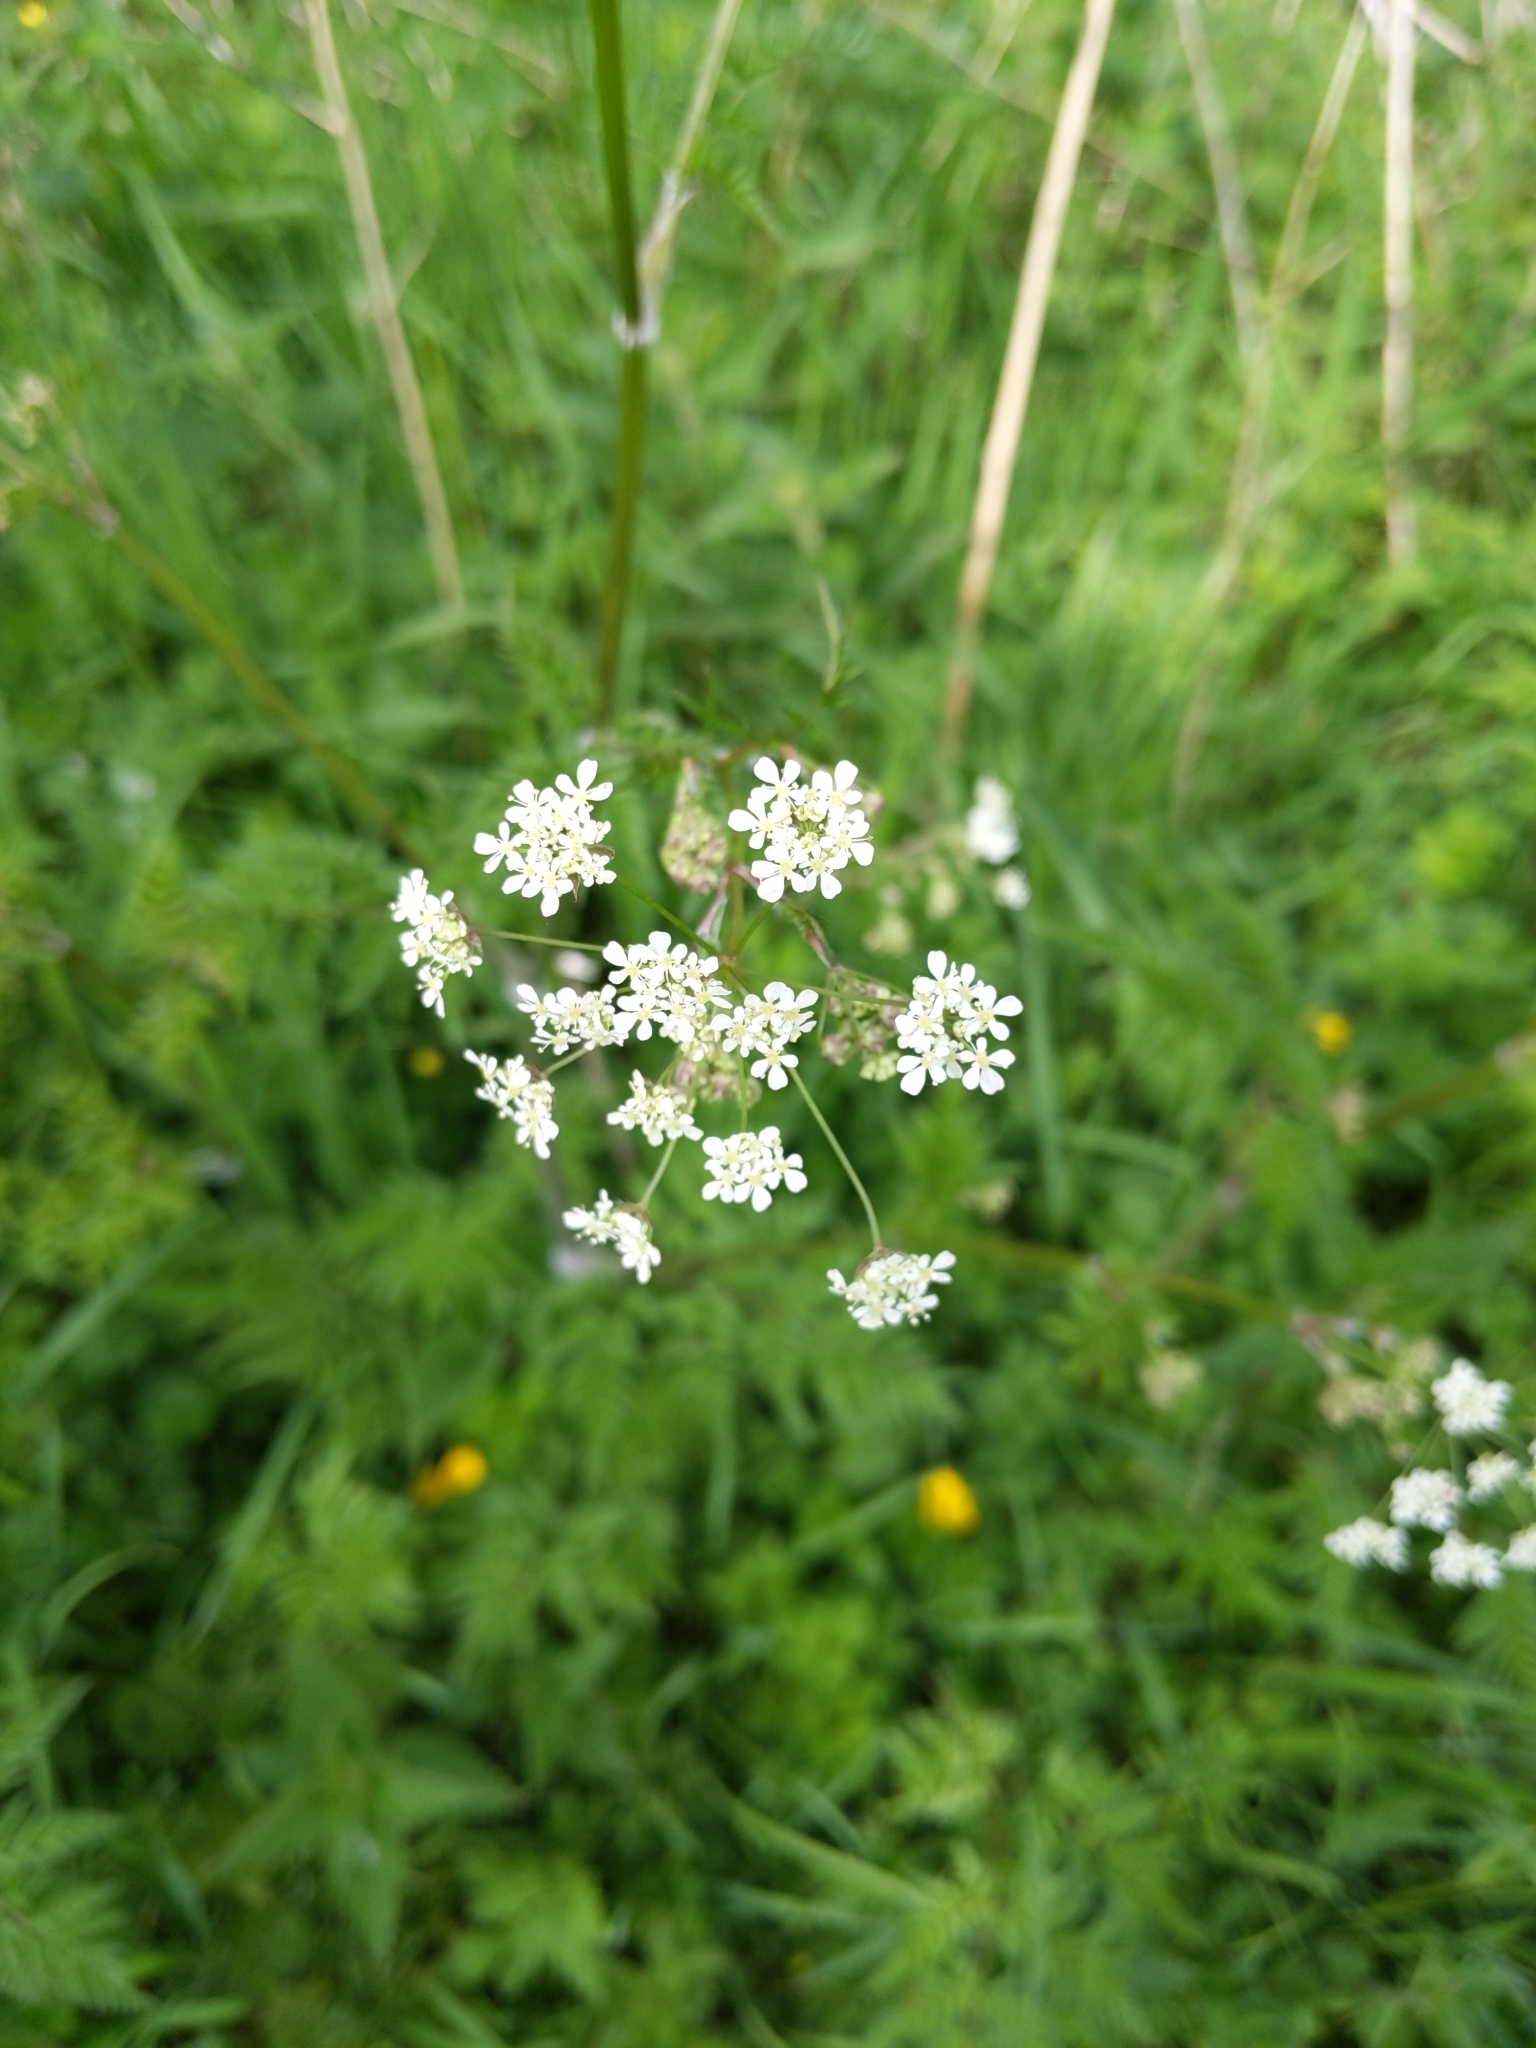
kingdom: Plantae
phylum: Tracheophyta
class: Magnoliopsida
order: Apiales
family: Apiaceae
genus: Anthriscus
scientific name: Anthriscus sylvestris
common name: Cow parsley
